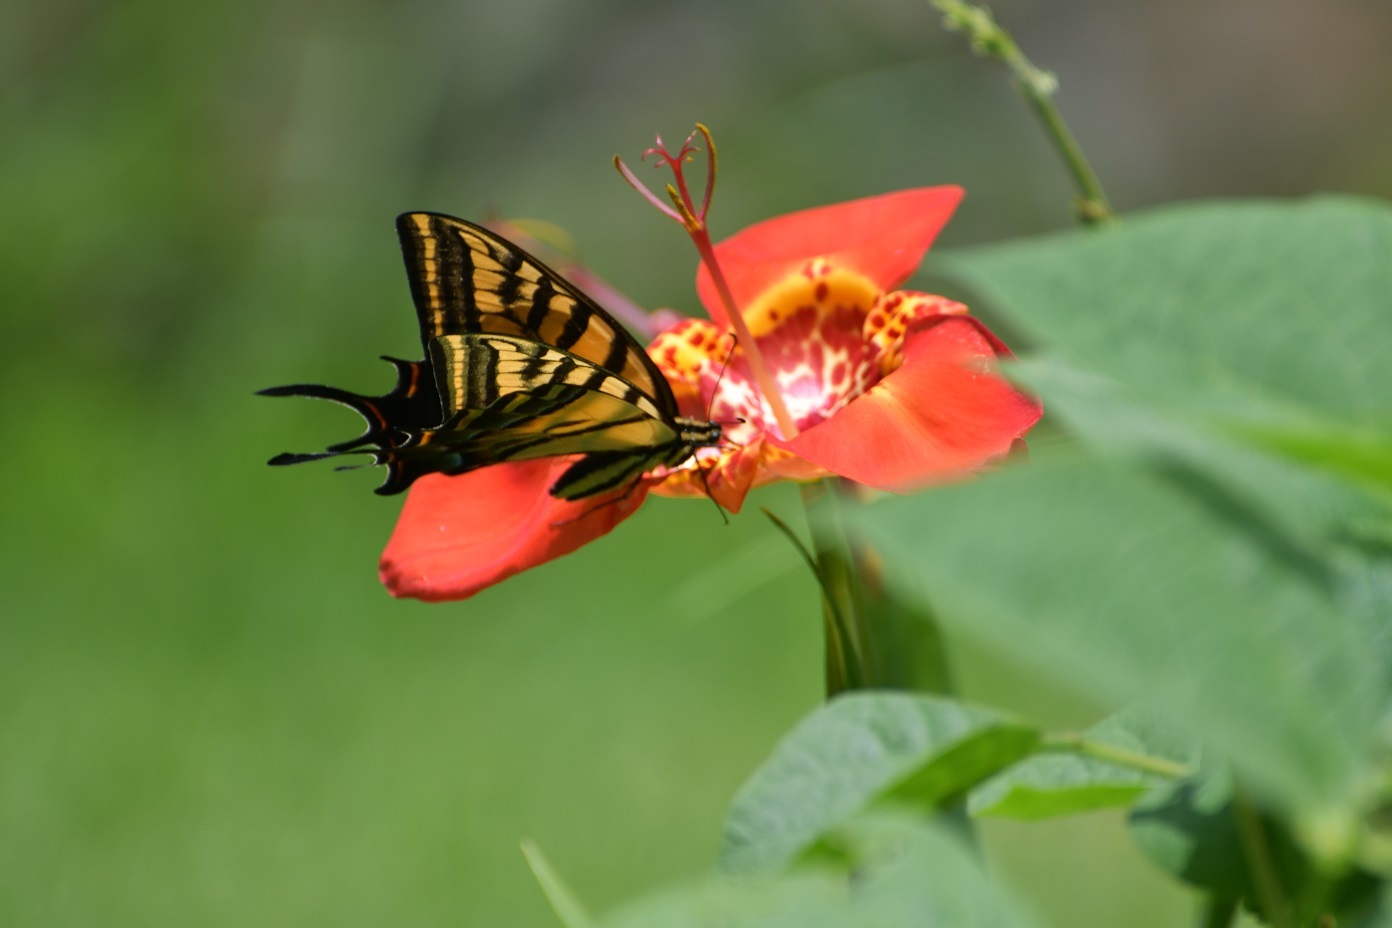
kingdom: Animalia
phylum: Arthropoda
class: Insecta
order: Lepidoptera
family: Papilionidae
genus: Papilio
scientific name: Papilio multicaudata
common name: Two-tailed tiger swallowtail
